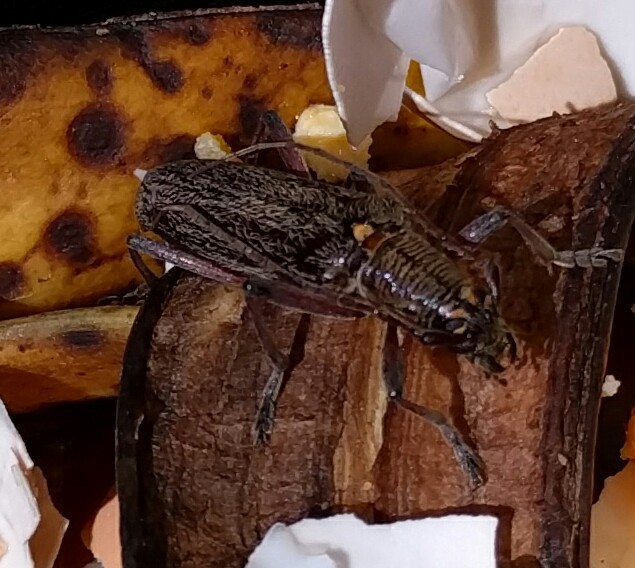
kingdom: Animalia
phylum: Arthropoda
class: Insecta
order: Coleoptera
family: Cerambycidae
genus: Oemona
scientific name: Oemona hirta
